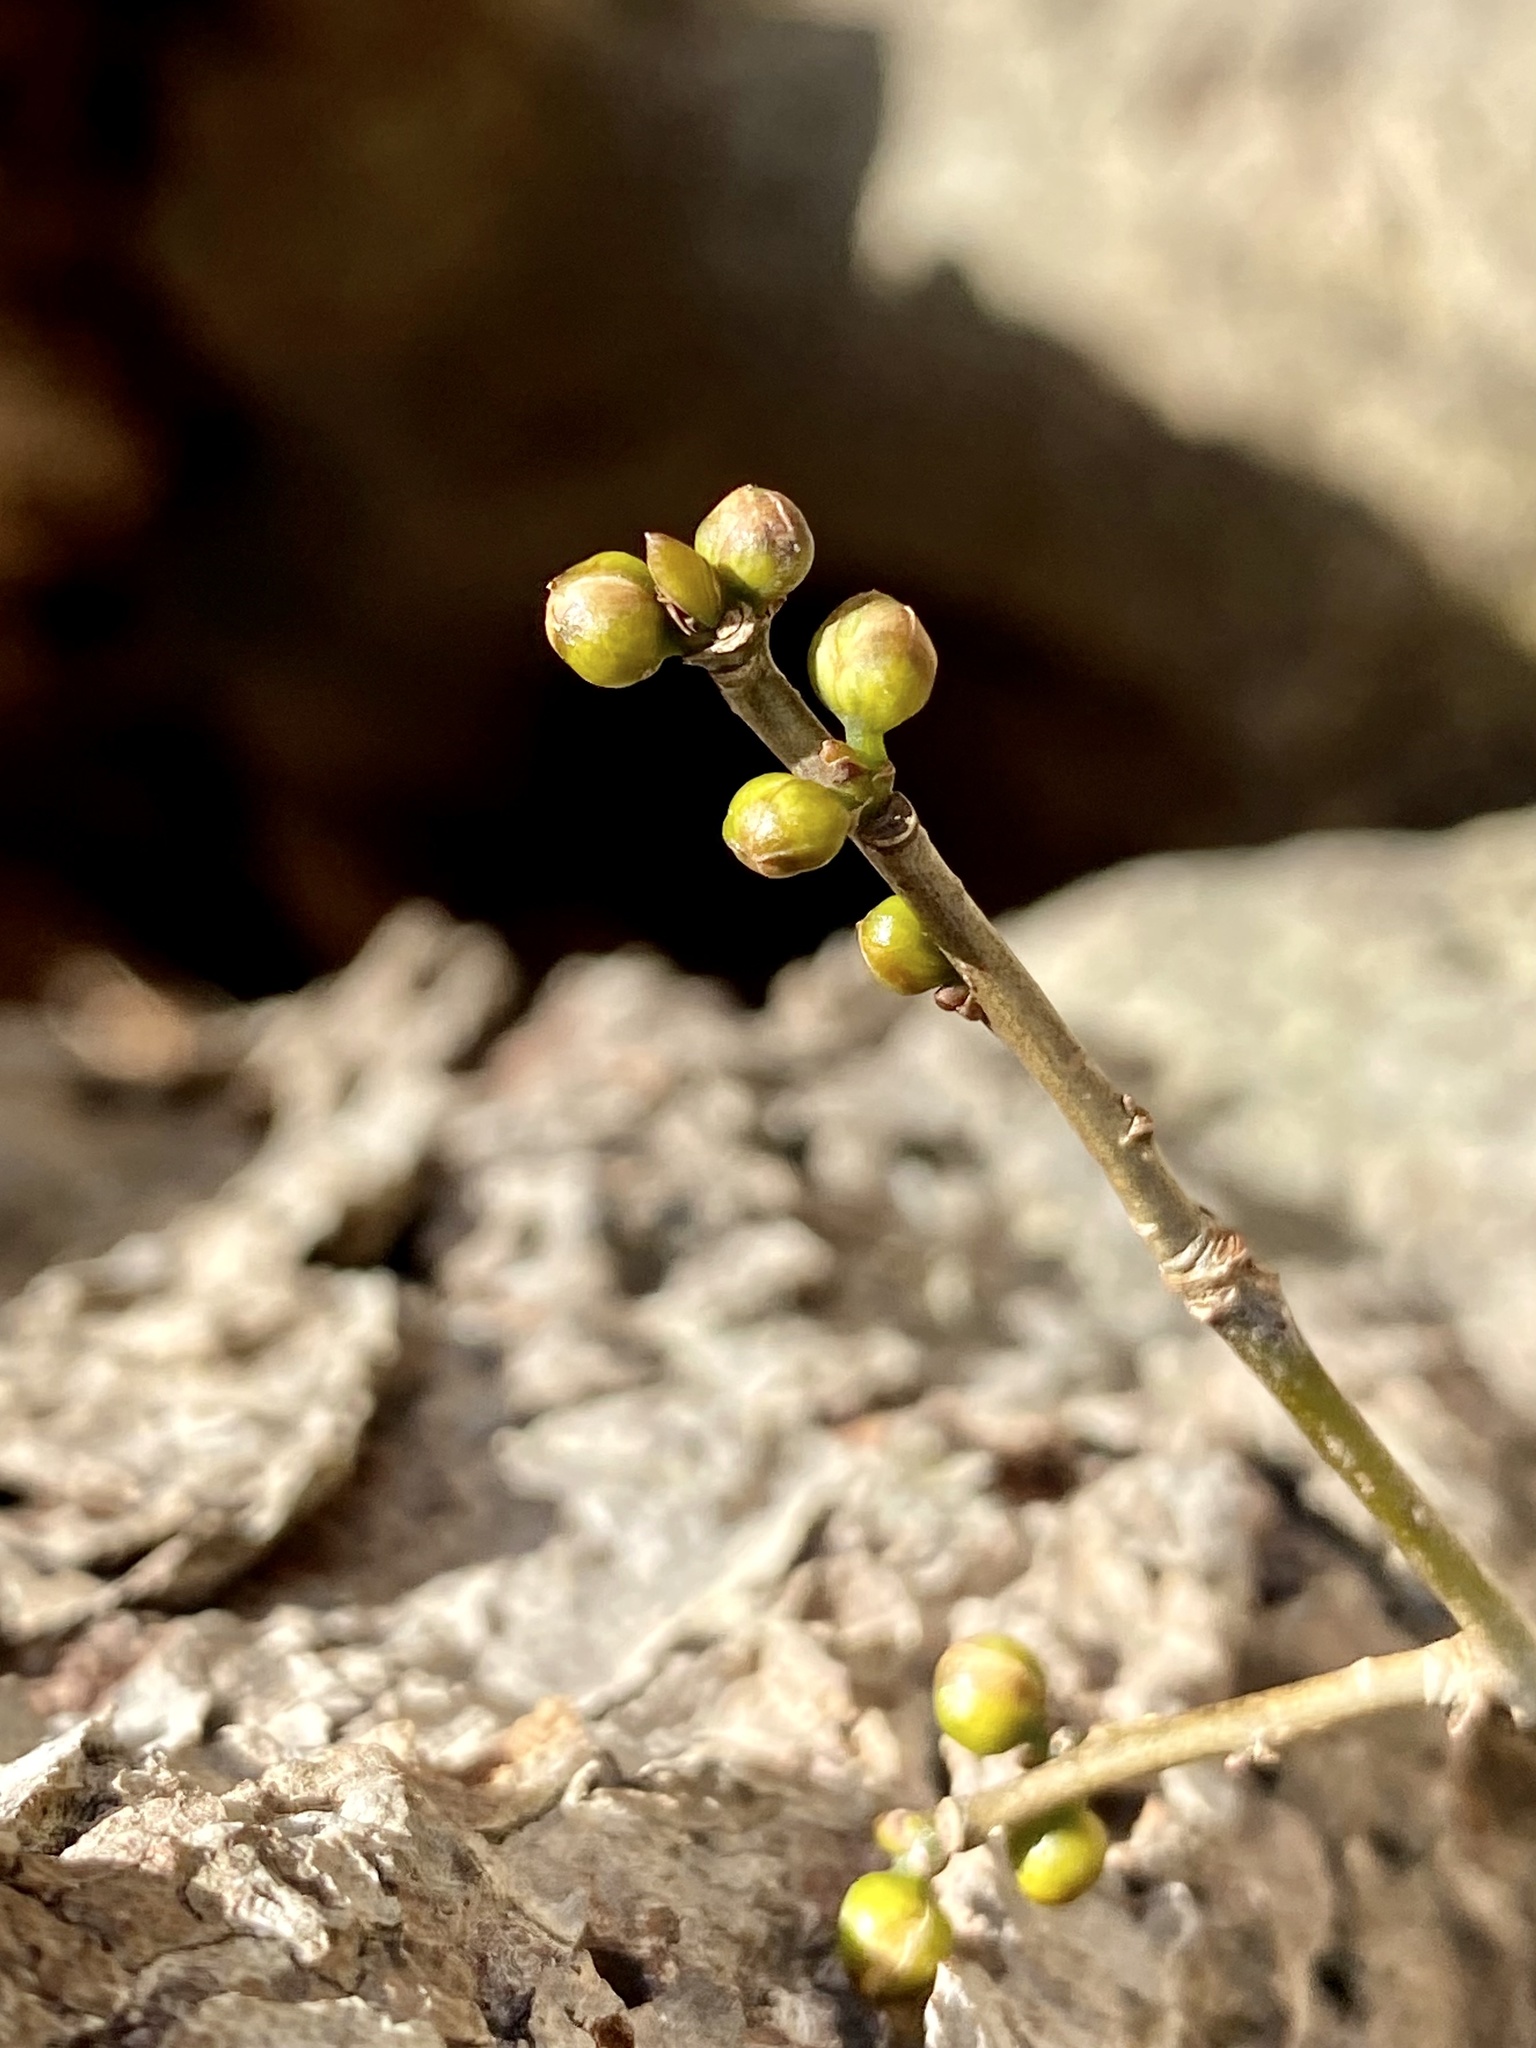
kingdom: Plantae
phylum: Tracheophyta
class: Magnoliopsida
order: Laurales
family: Lauraceae
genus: Lindera
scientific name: Lindera benzoin
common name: Spicebush
